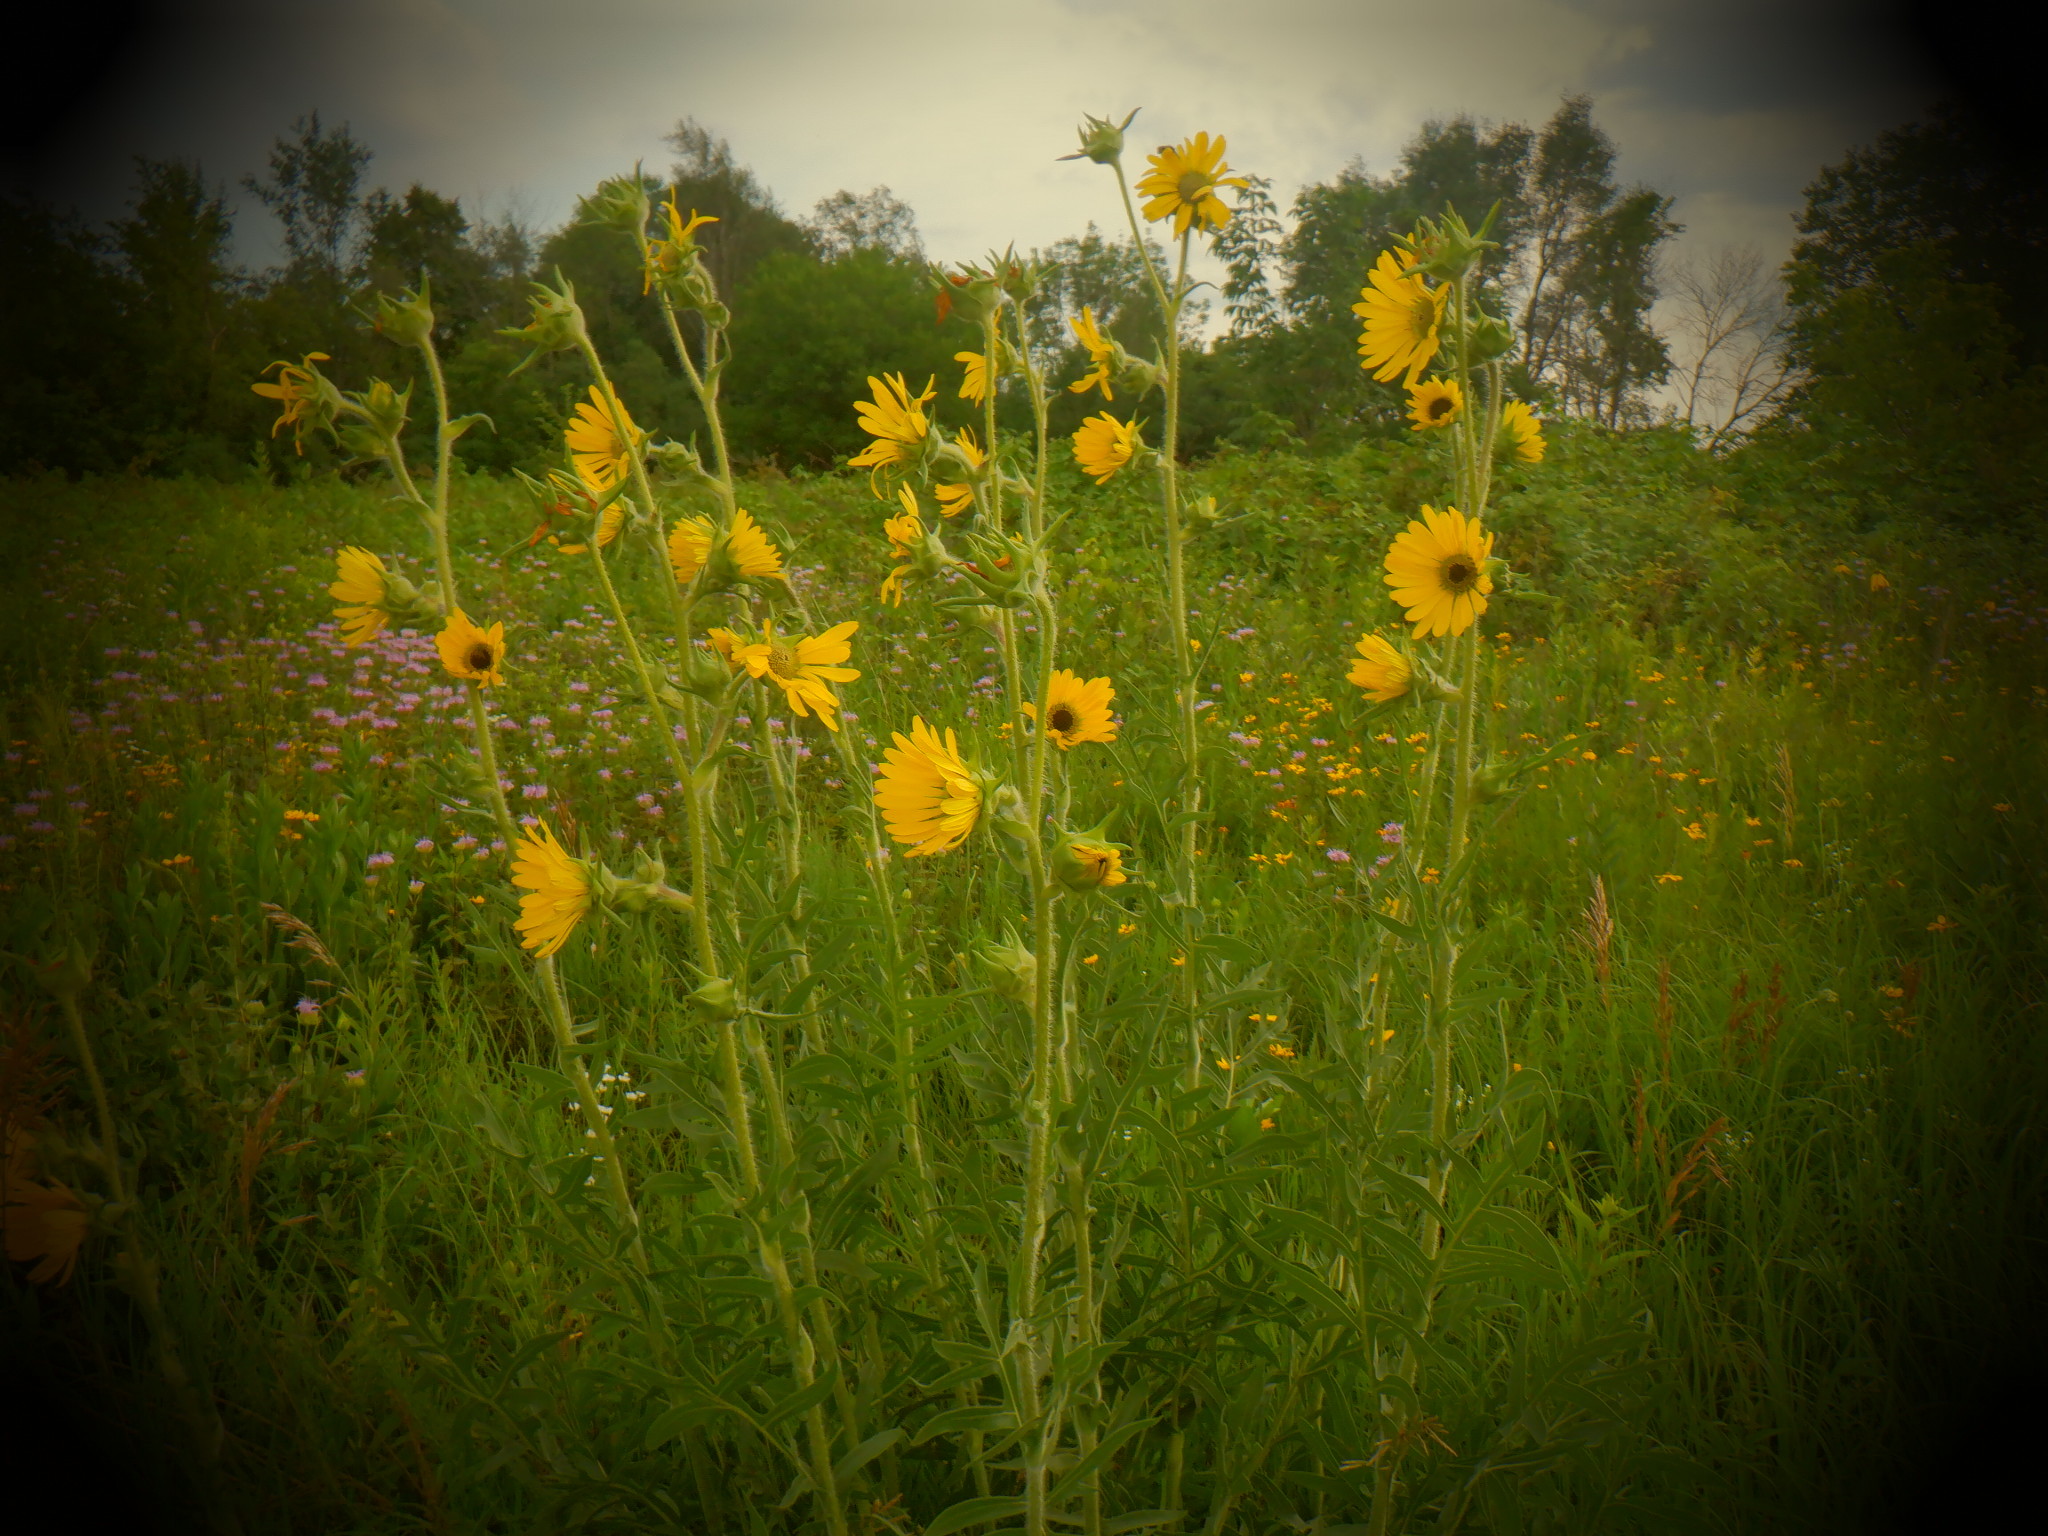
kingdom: Plantae
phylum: Tracheophyta
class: Magnoliopsida
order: Asterales
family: Asteraceae
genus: Silphium
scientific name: Silphium laciniatum
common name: Polarplant
